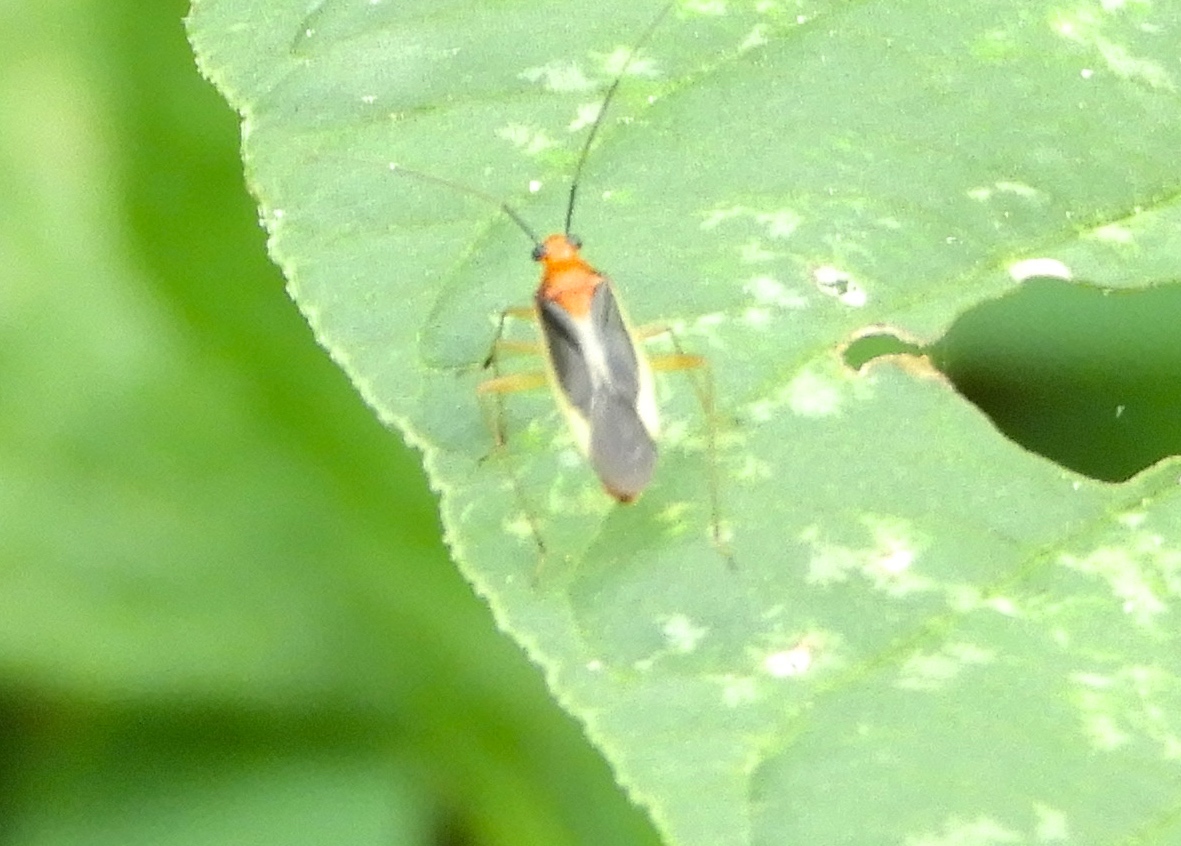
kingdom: Animalia
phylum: Arthropoda
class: Insecta
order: Hemiptera
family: Miridae
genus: Ganocapsus
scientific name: Ganocapsus filiformis
